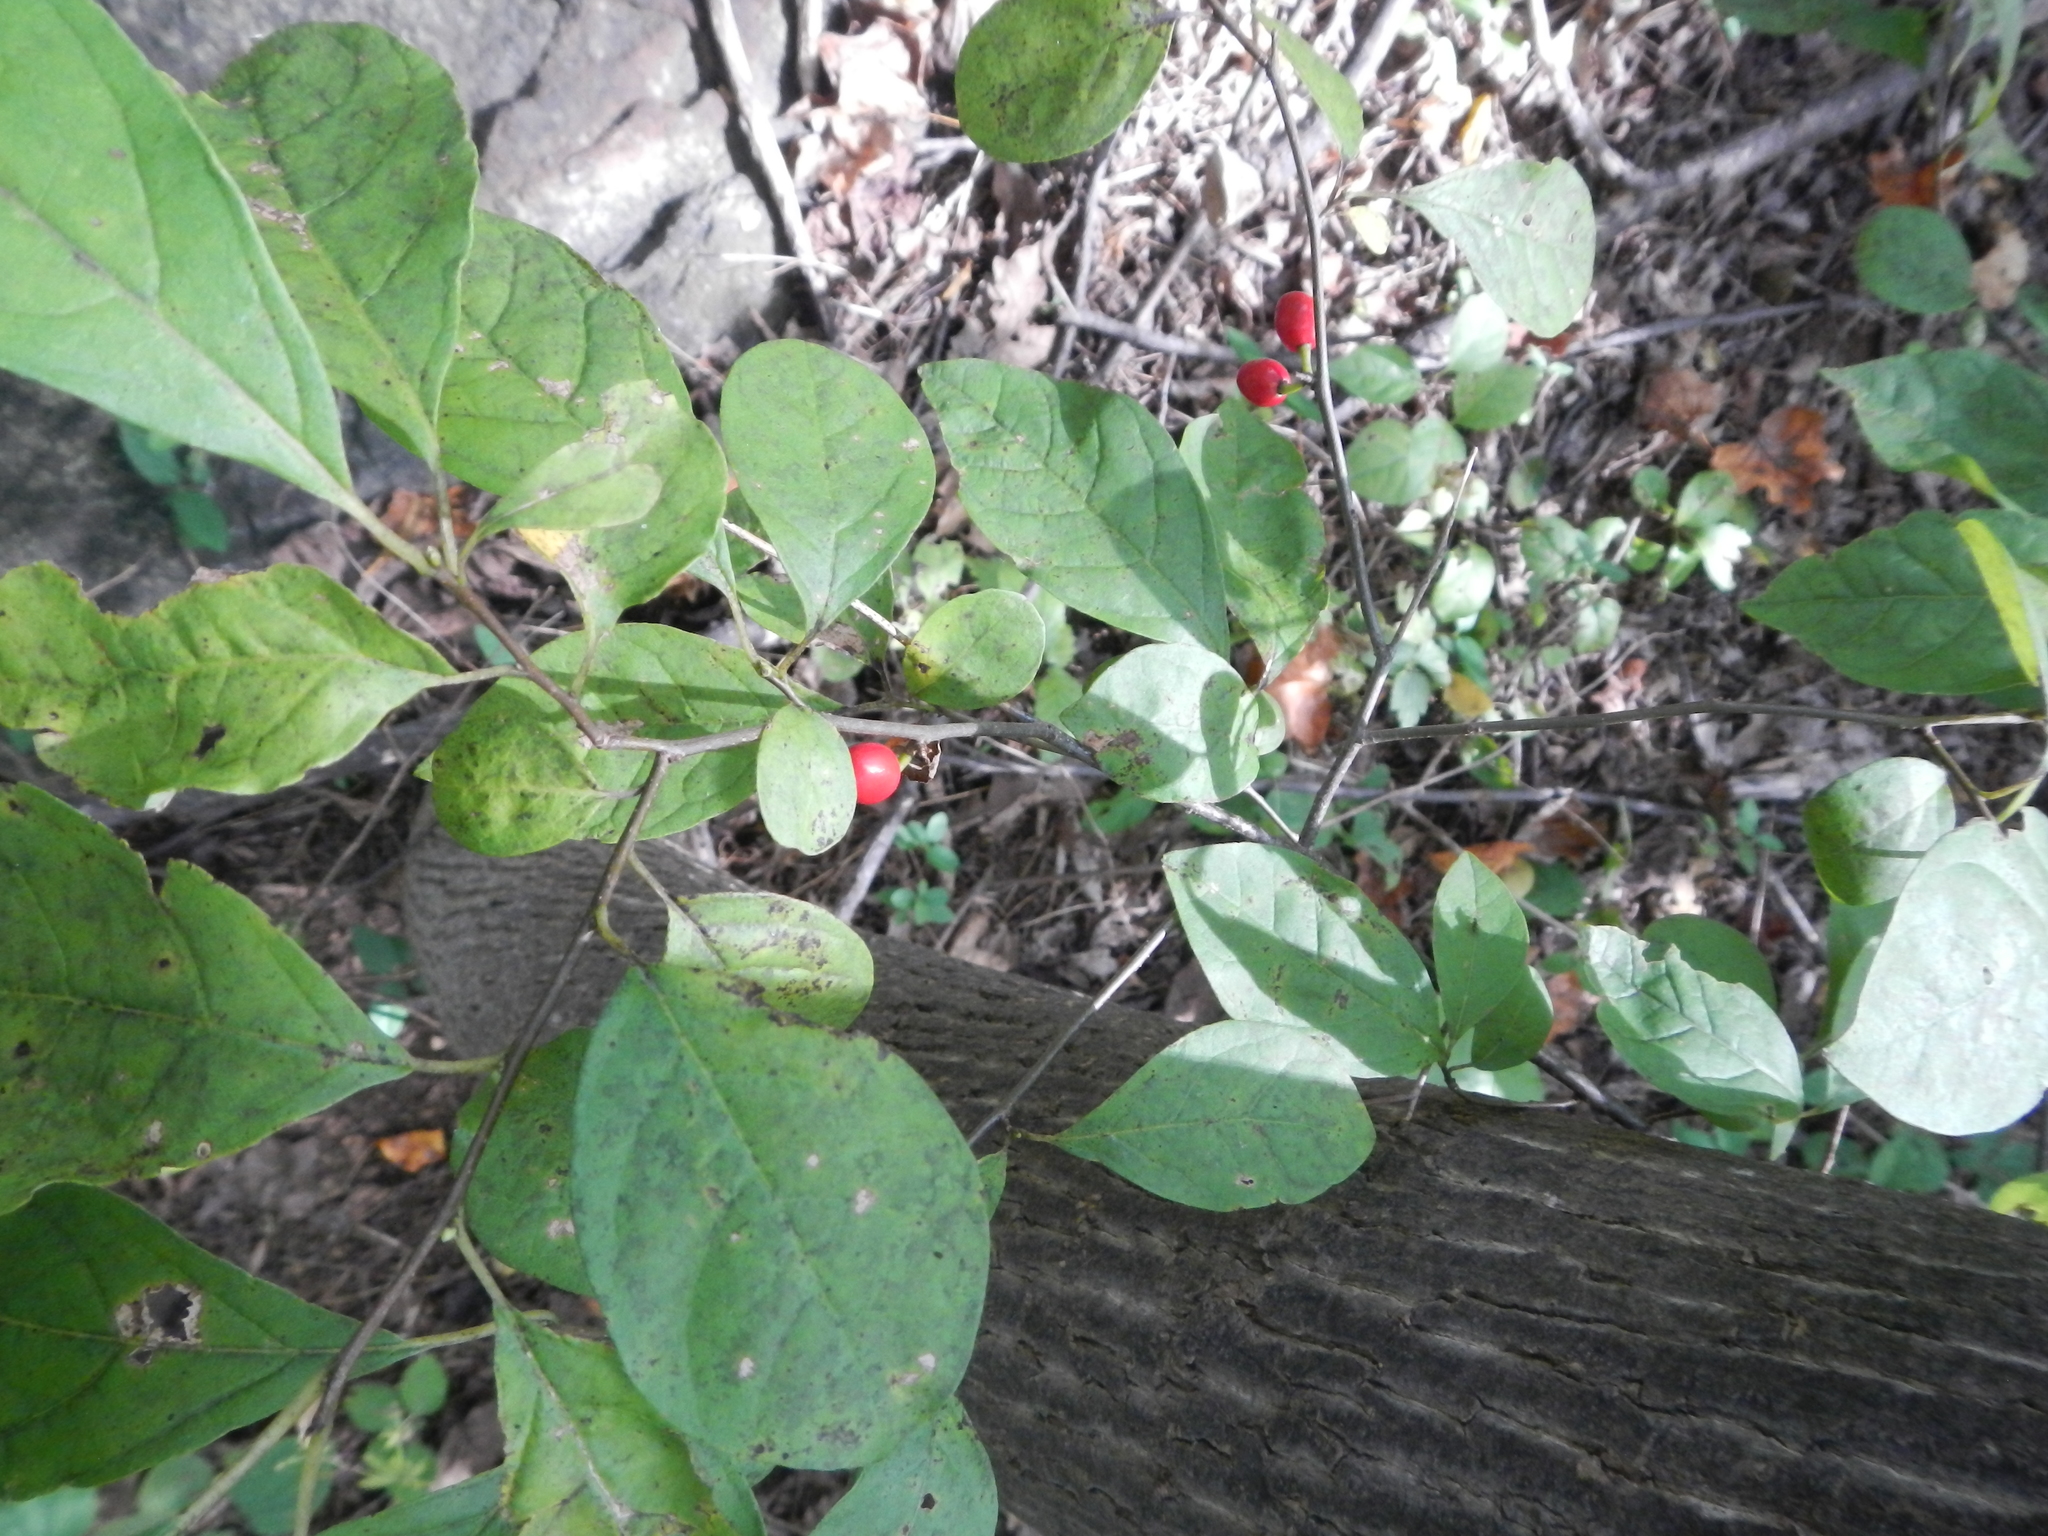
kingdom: Plantae
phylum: Tracheophyta
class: Magnoliopsida
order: Laurales
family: Lauraceae
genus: Lindera
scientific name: Lindera benzoin
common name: Spicebush
